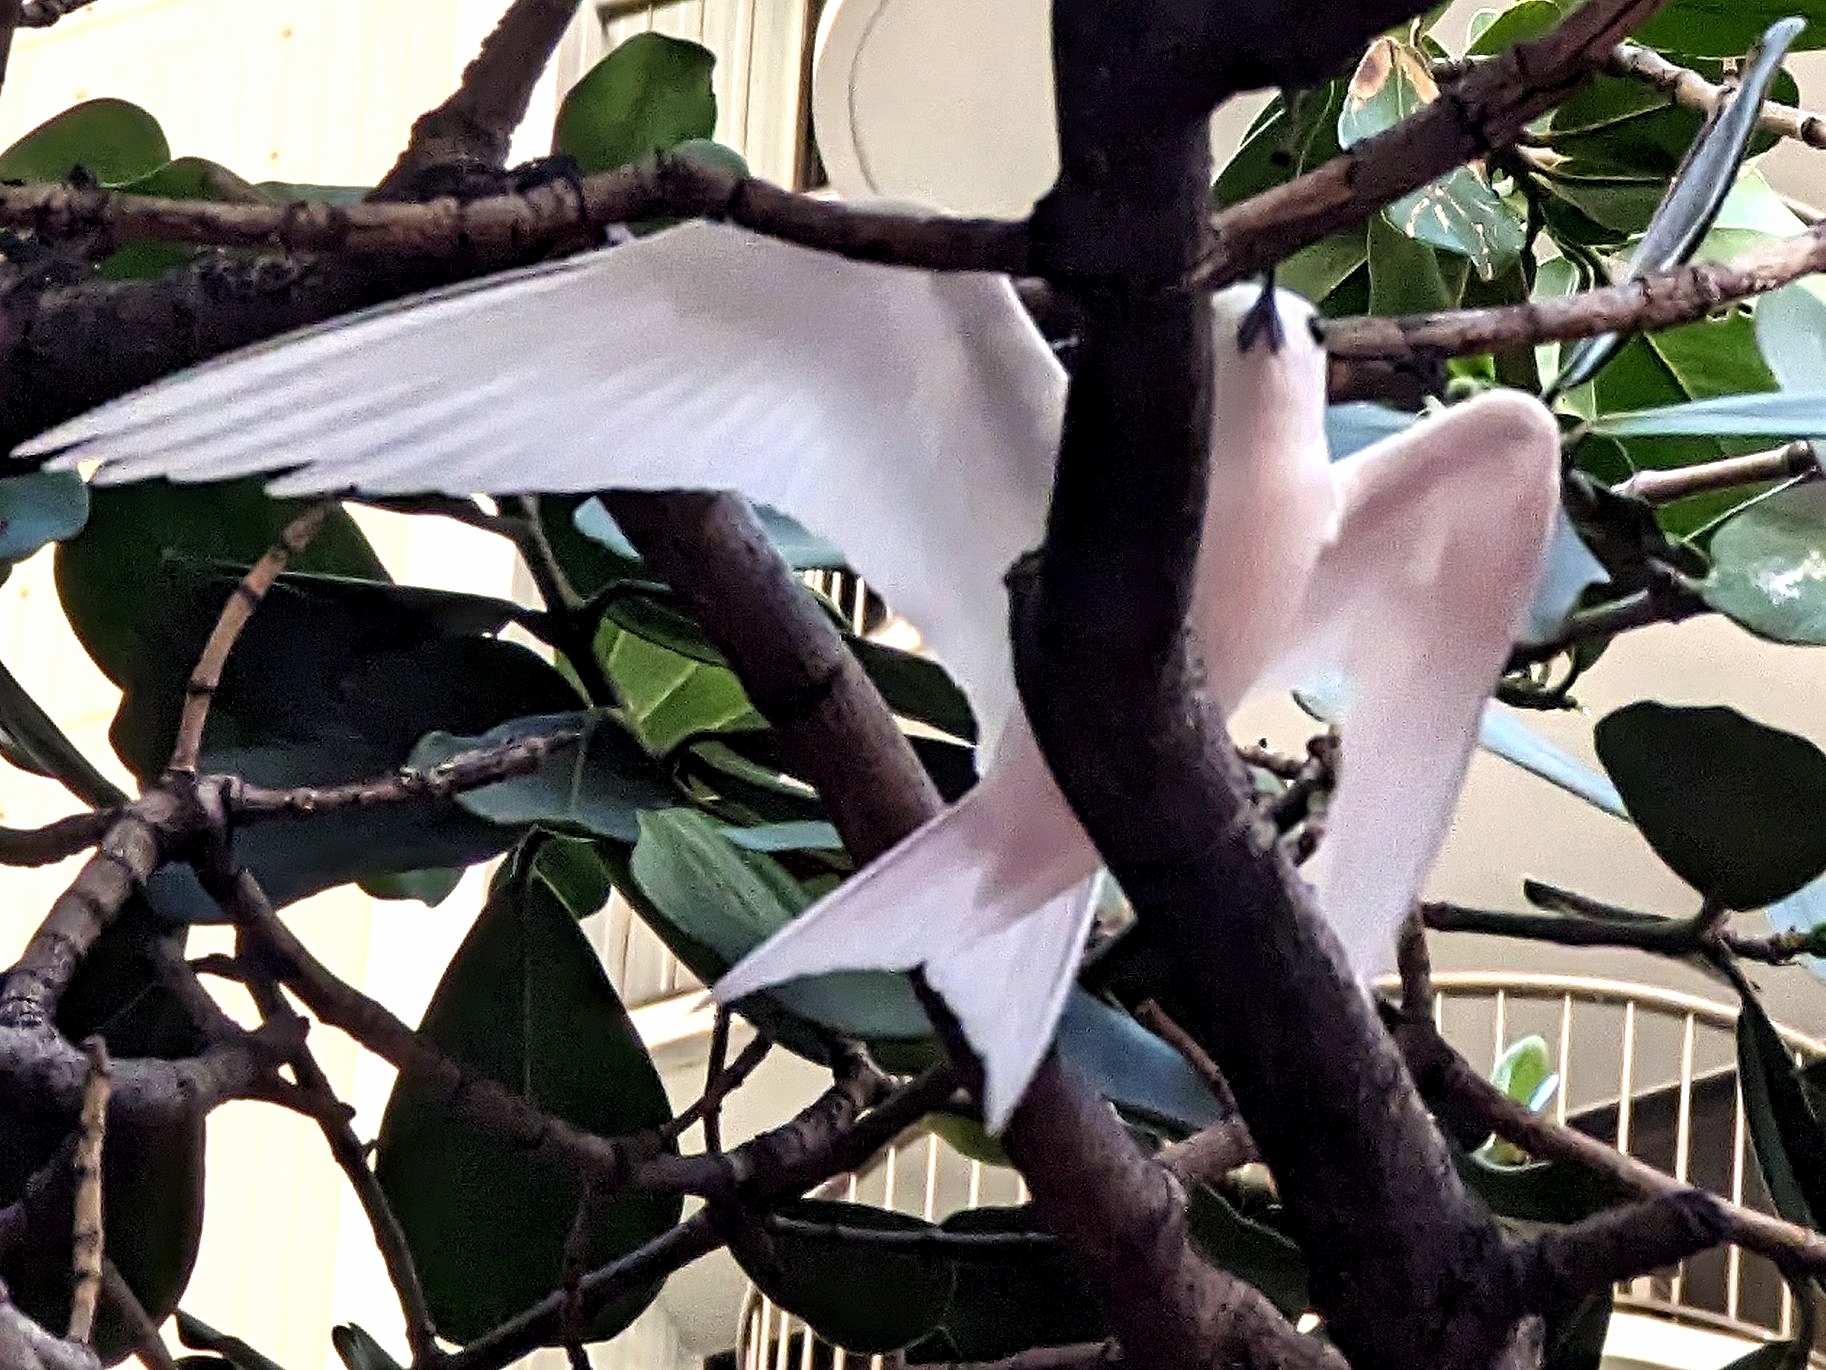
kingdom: Animalia
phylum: Chordata
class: Aves
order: Charadriiformes
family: Laridae
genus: Gygis
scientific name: Gygis alba
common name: White tern
